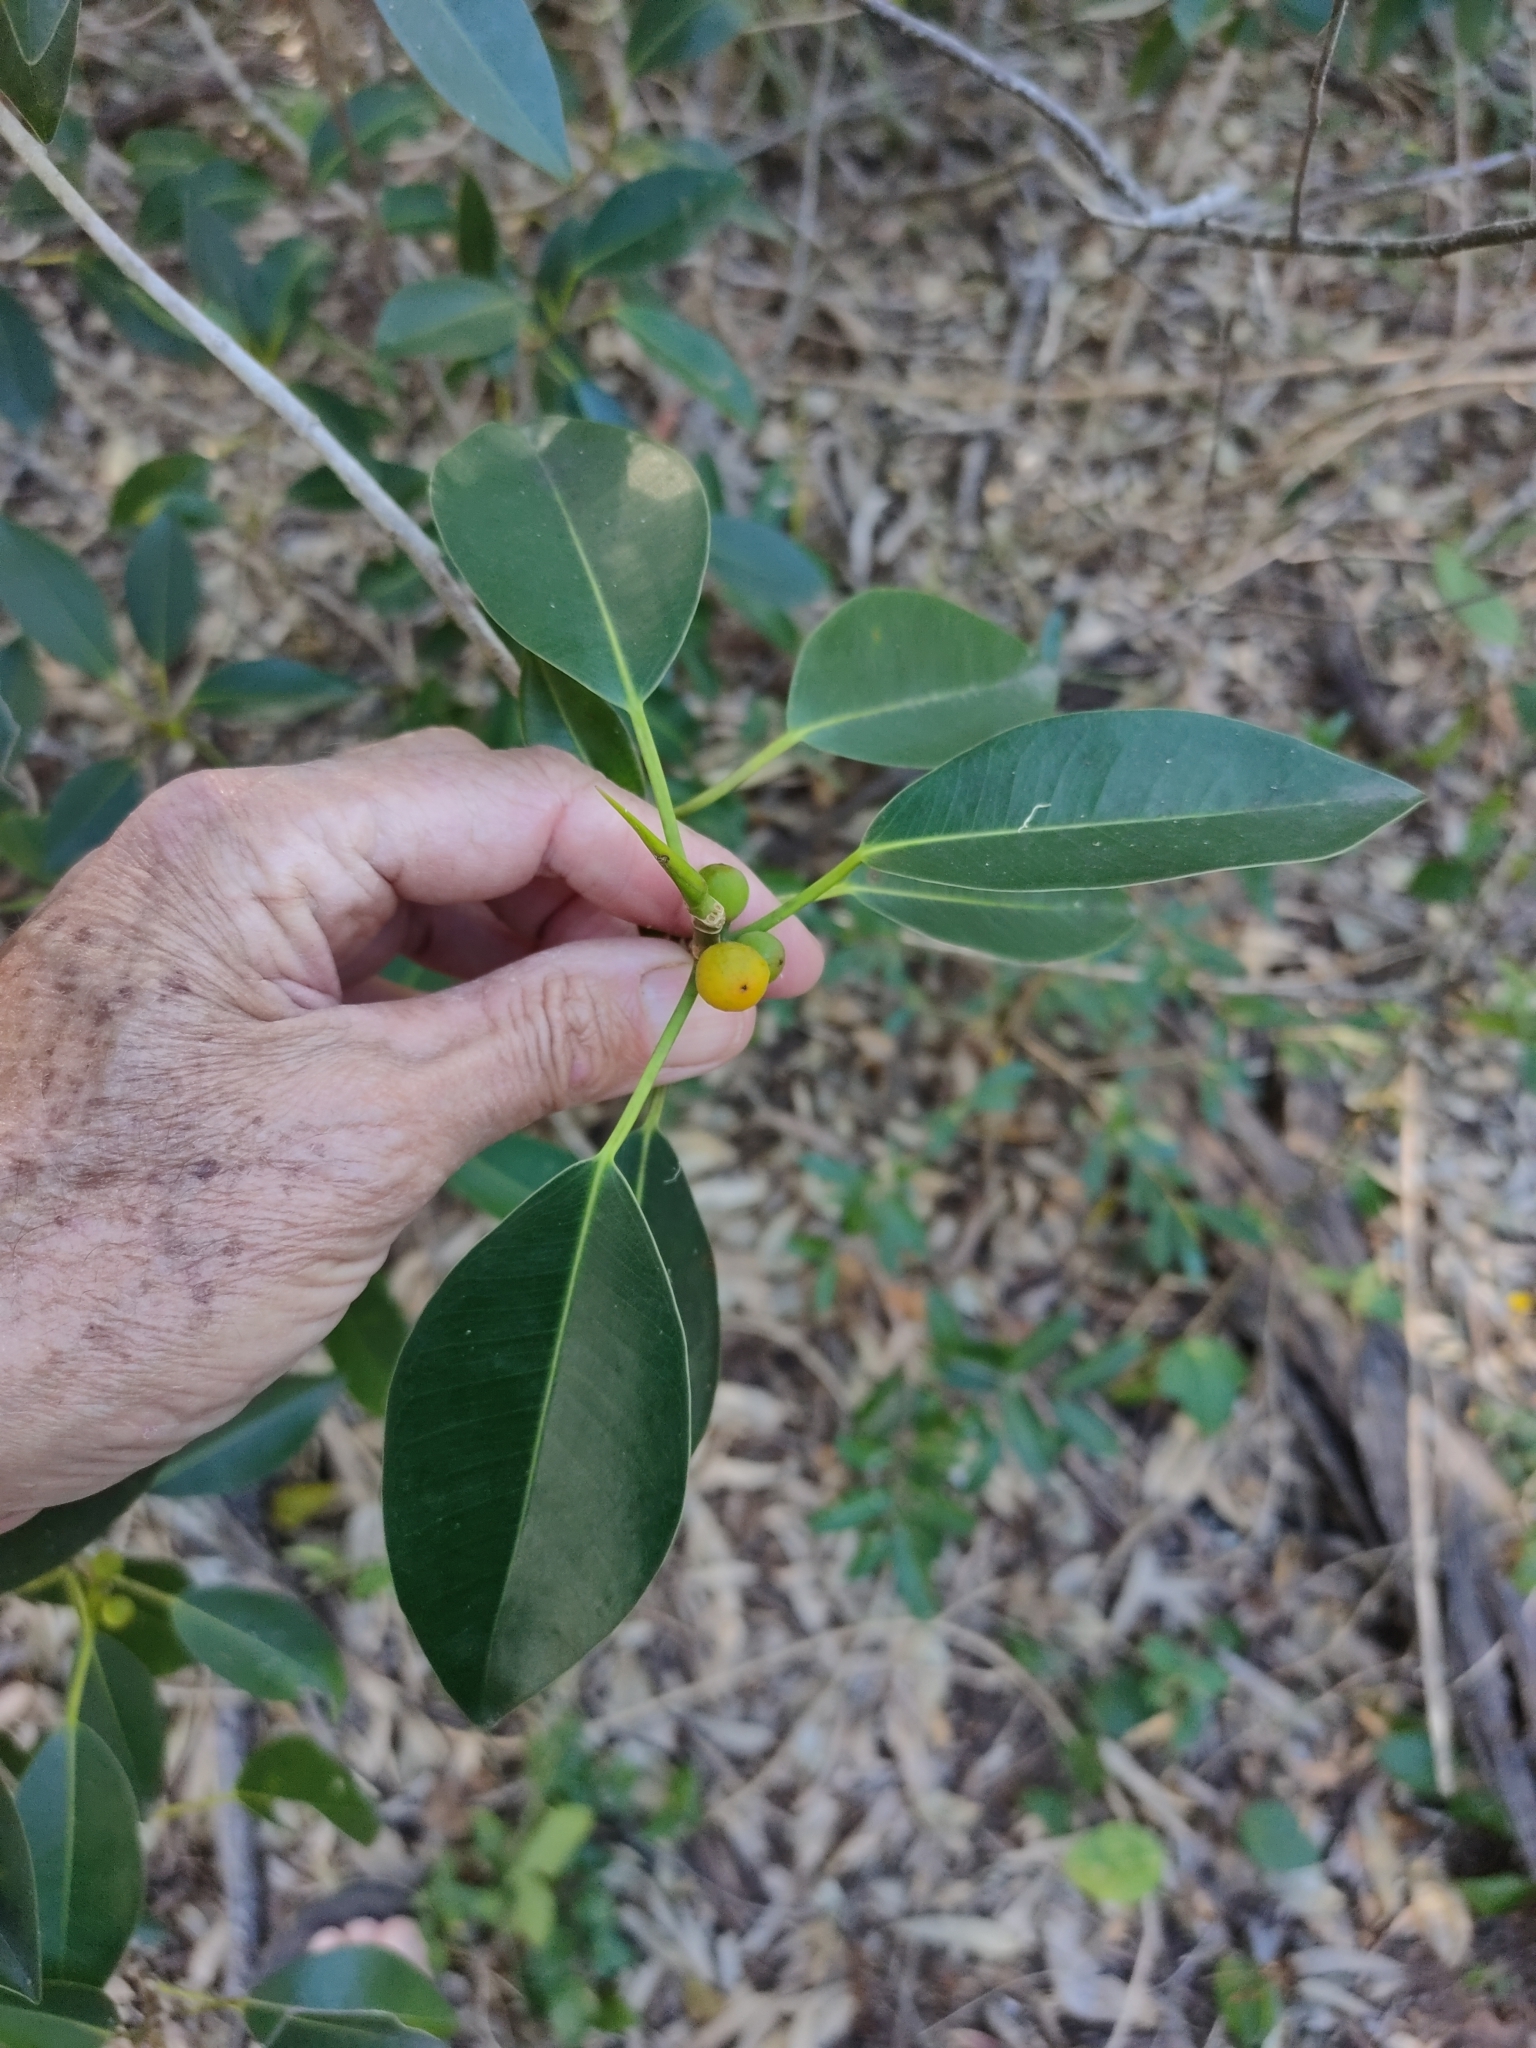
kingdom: Plantae
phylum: Tracheophyta
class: Magnoliopsida
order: Rosales
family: Moraceae
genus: Ficus
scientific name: Ficus obliqua
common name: Small-leaf fig
